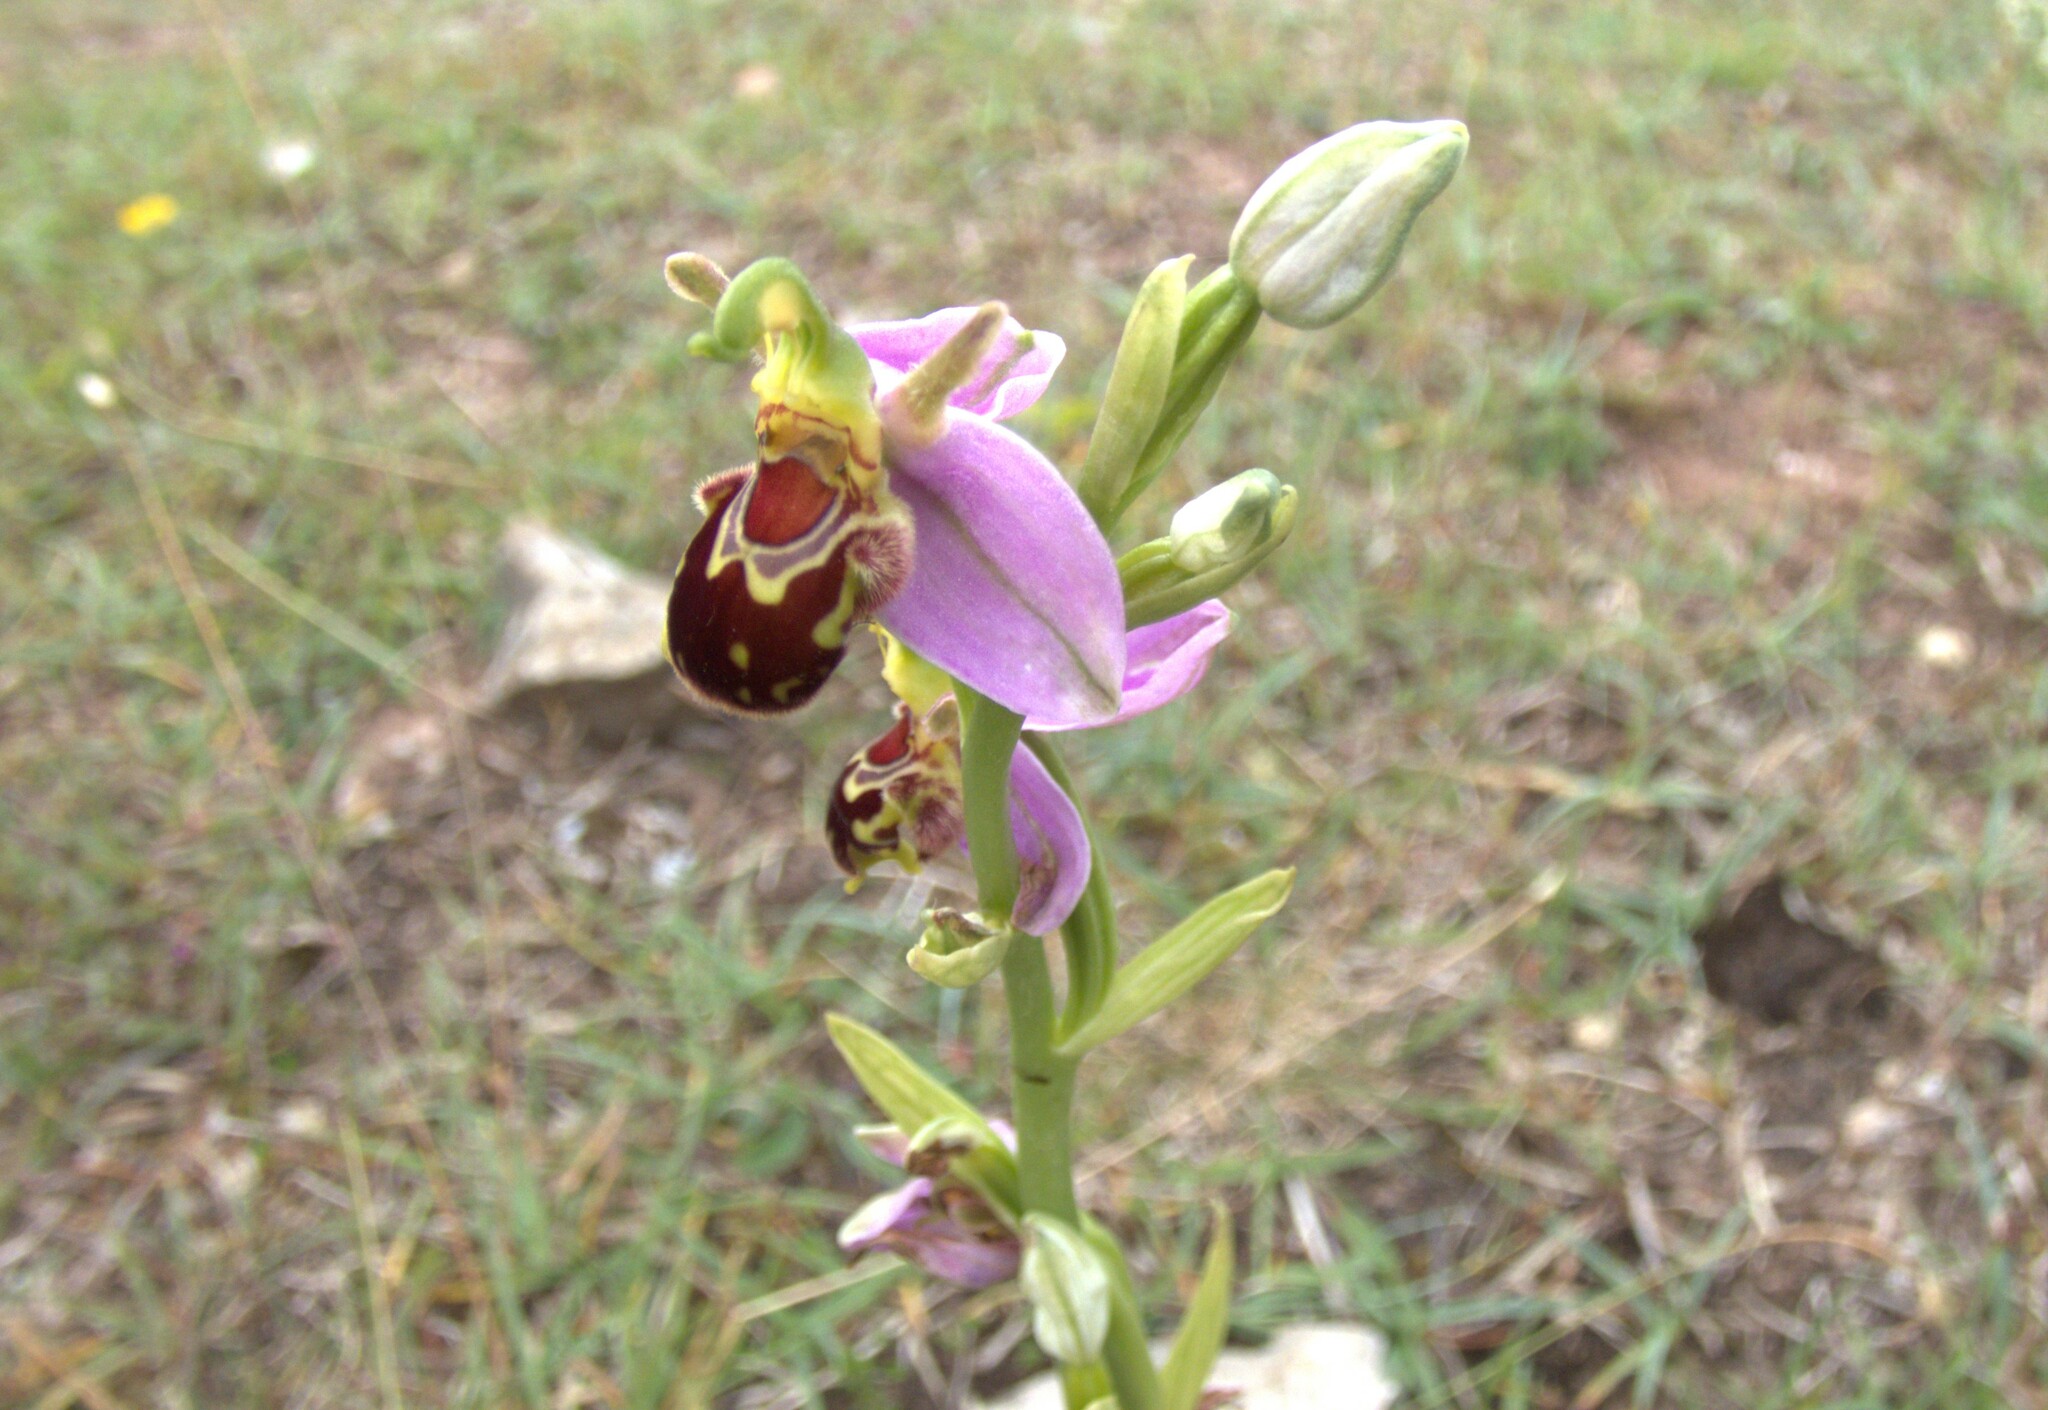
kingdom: Plantae
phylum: Tracheophyta
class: Liliopsida
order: Asparagales
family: Orchidaceae
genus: Ophrys
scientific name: Ophrys apifera
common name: Bee orchid
